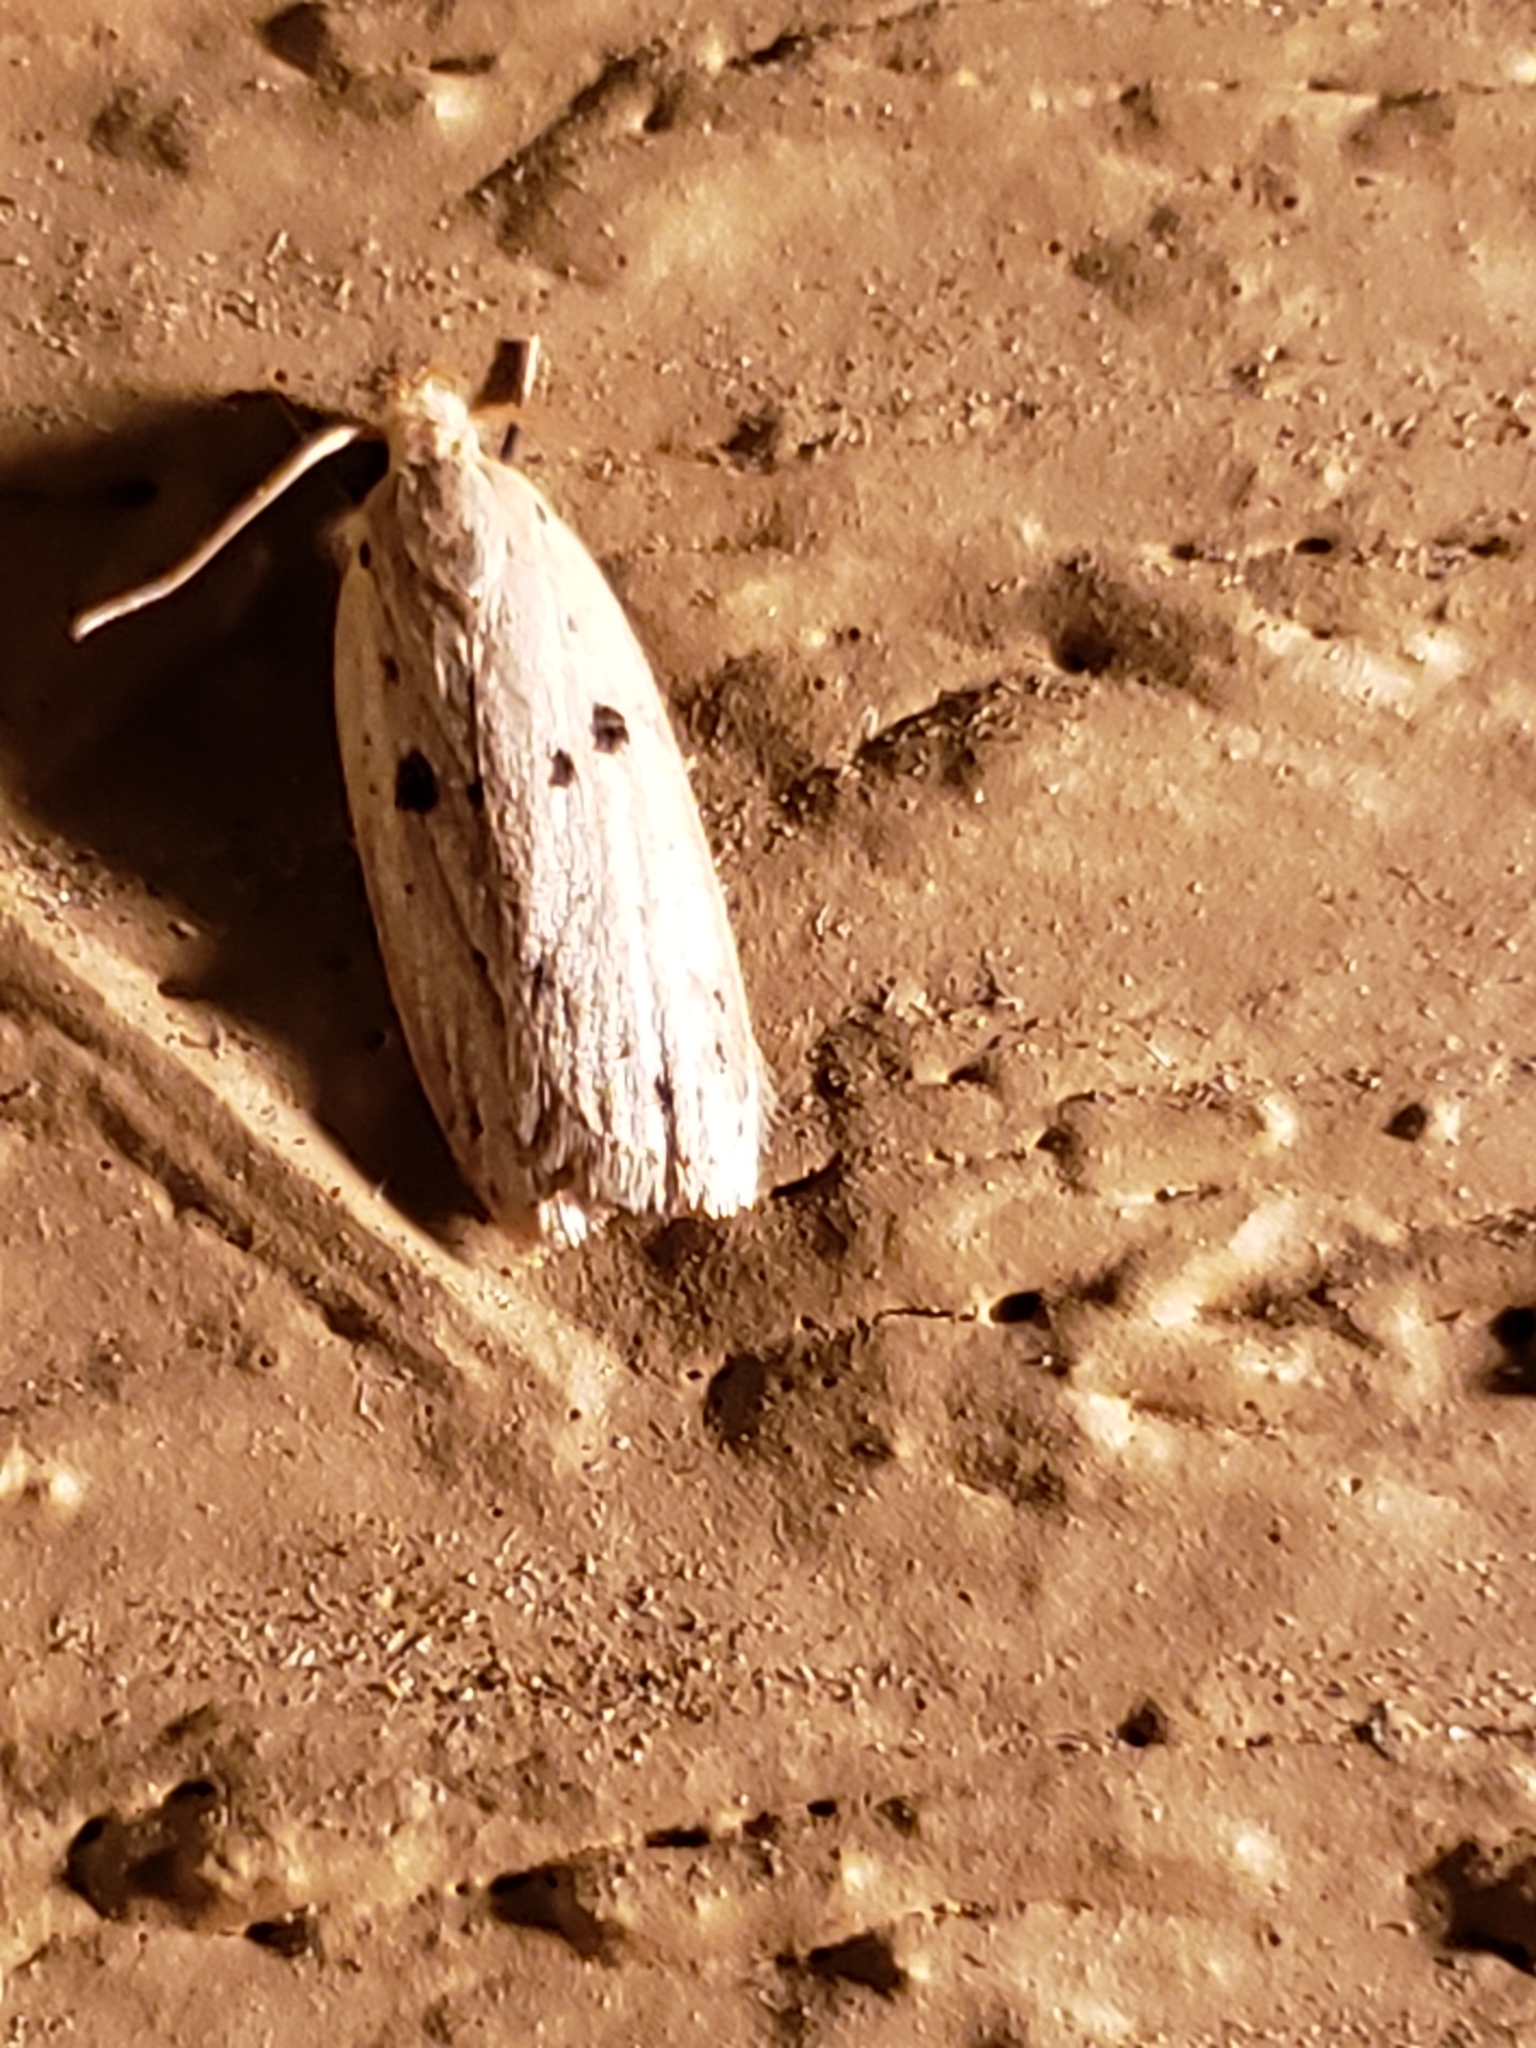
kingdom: Animalia
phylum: Arthropoda
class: Insecta
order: Lepidoptera
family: Peleopodidae
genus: Scythropiodes
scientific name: Scythropiodes issikii
